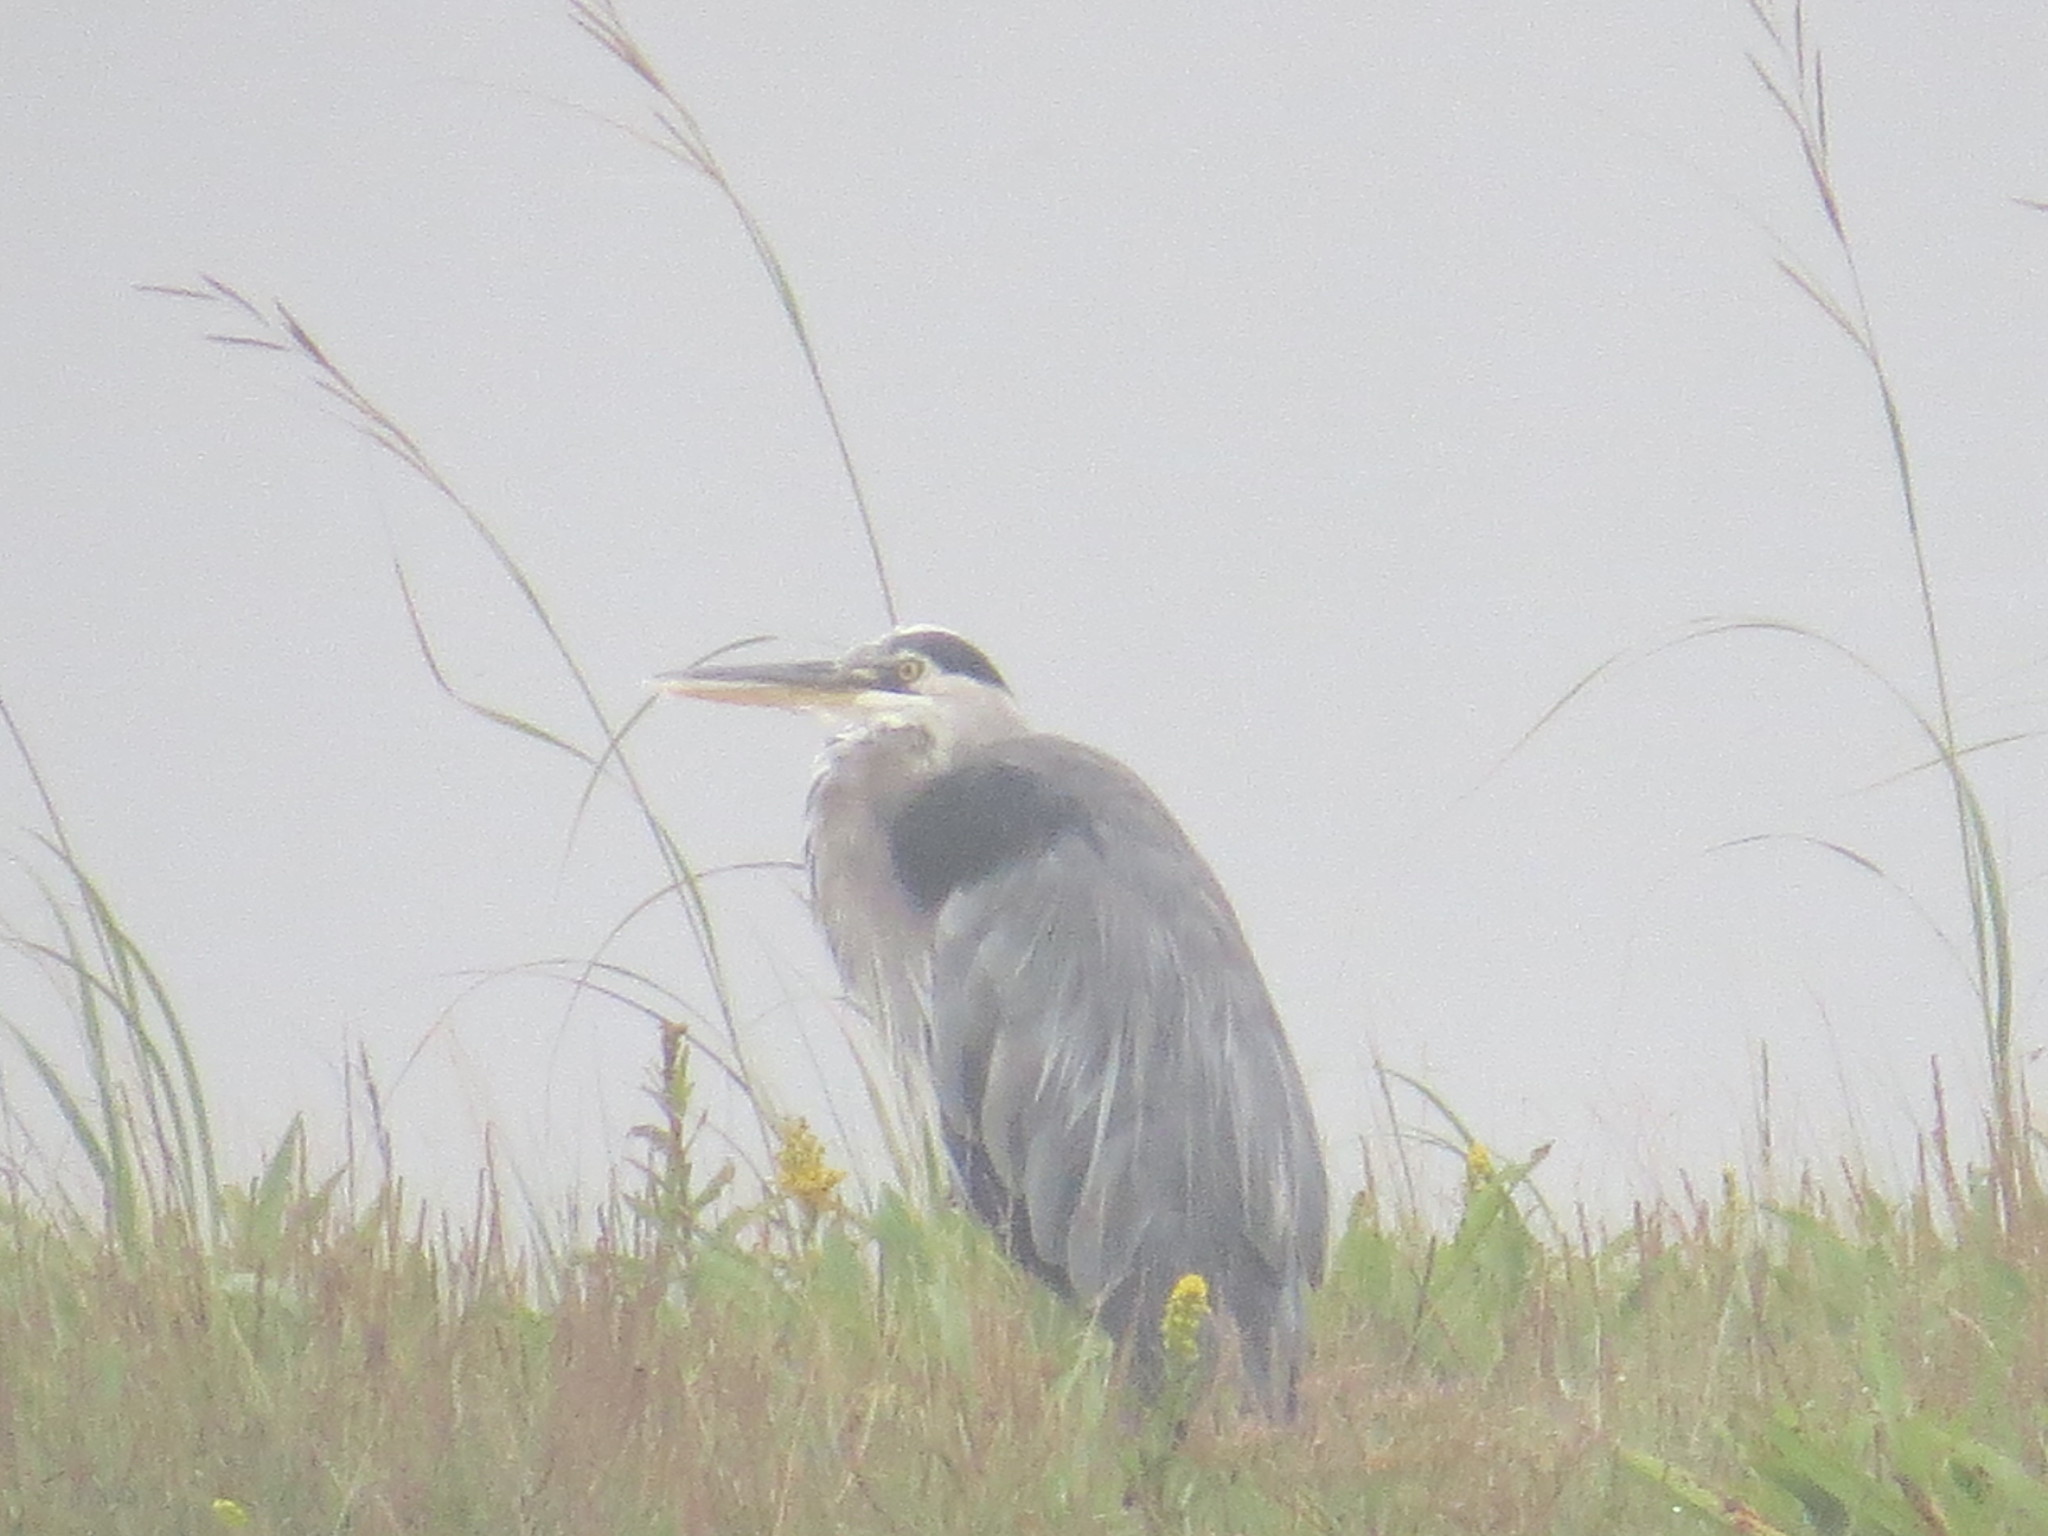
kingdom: Animalia
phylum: Chordata
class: Aves
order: Pelecaniformes
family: Ardeidae
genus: Ardea
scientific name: Ardea herodias
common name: Great blue heron
